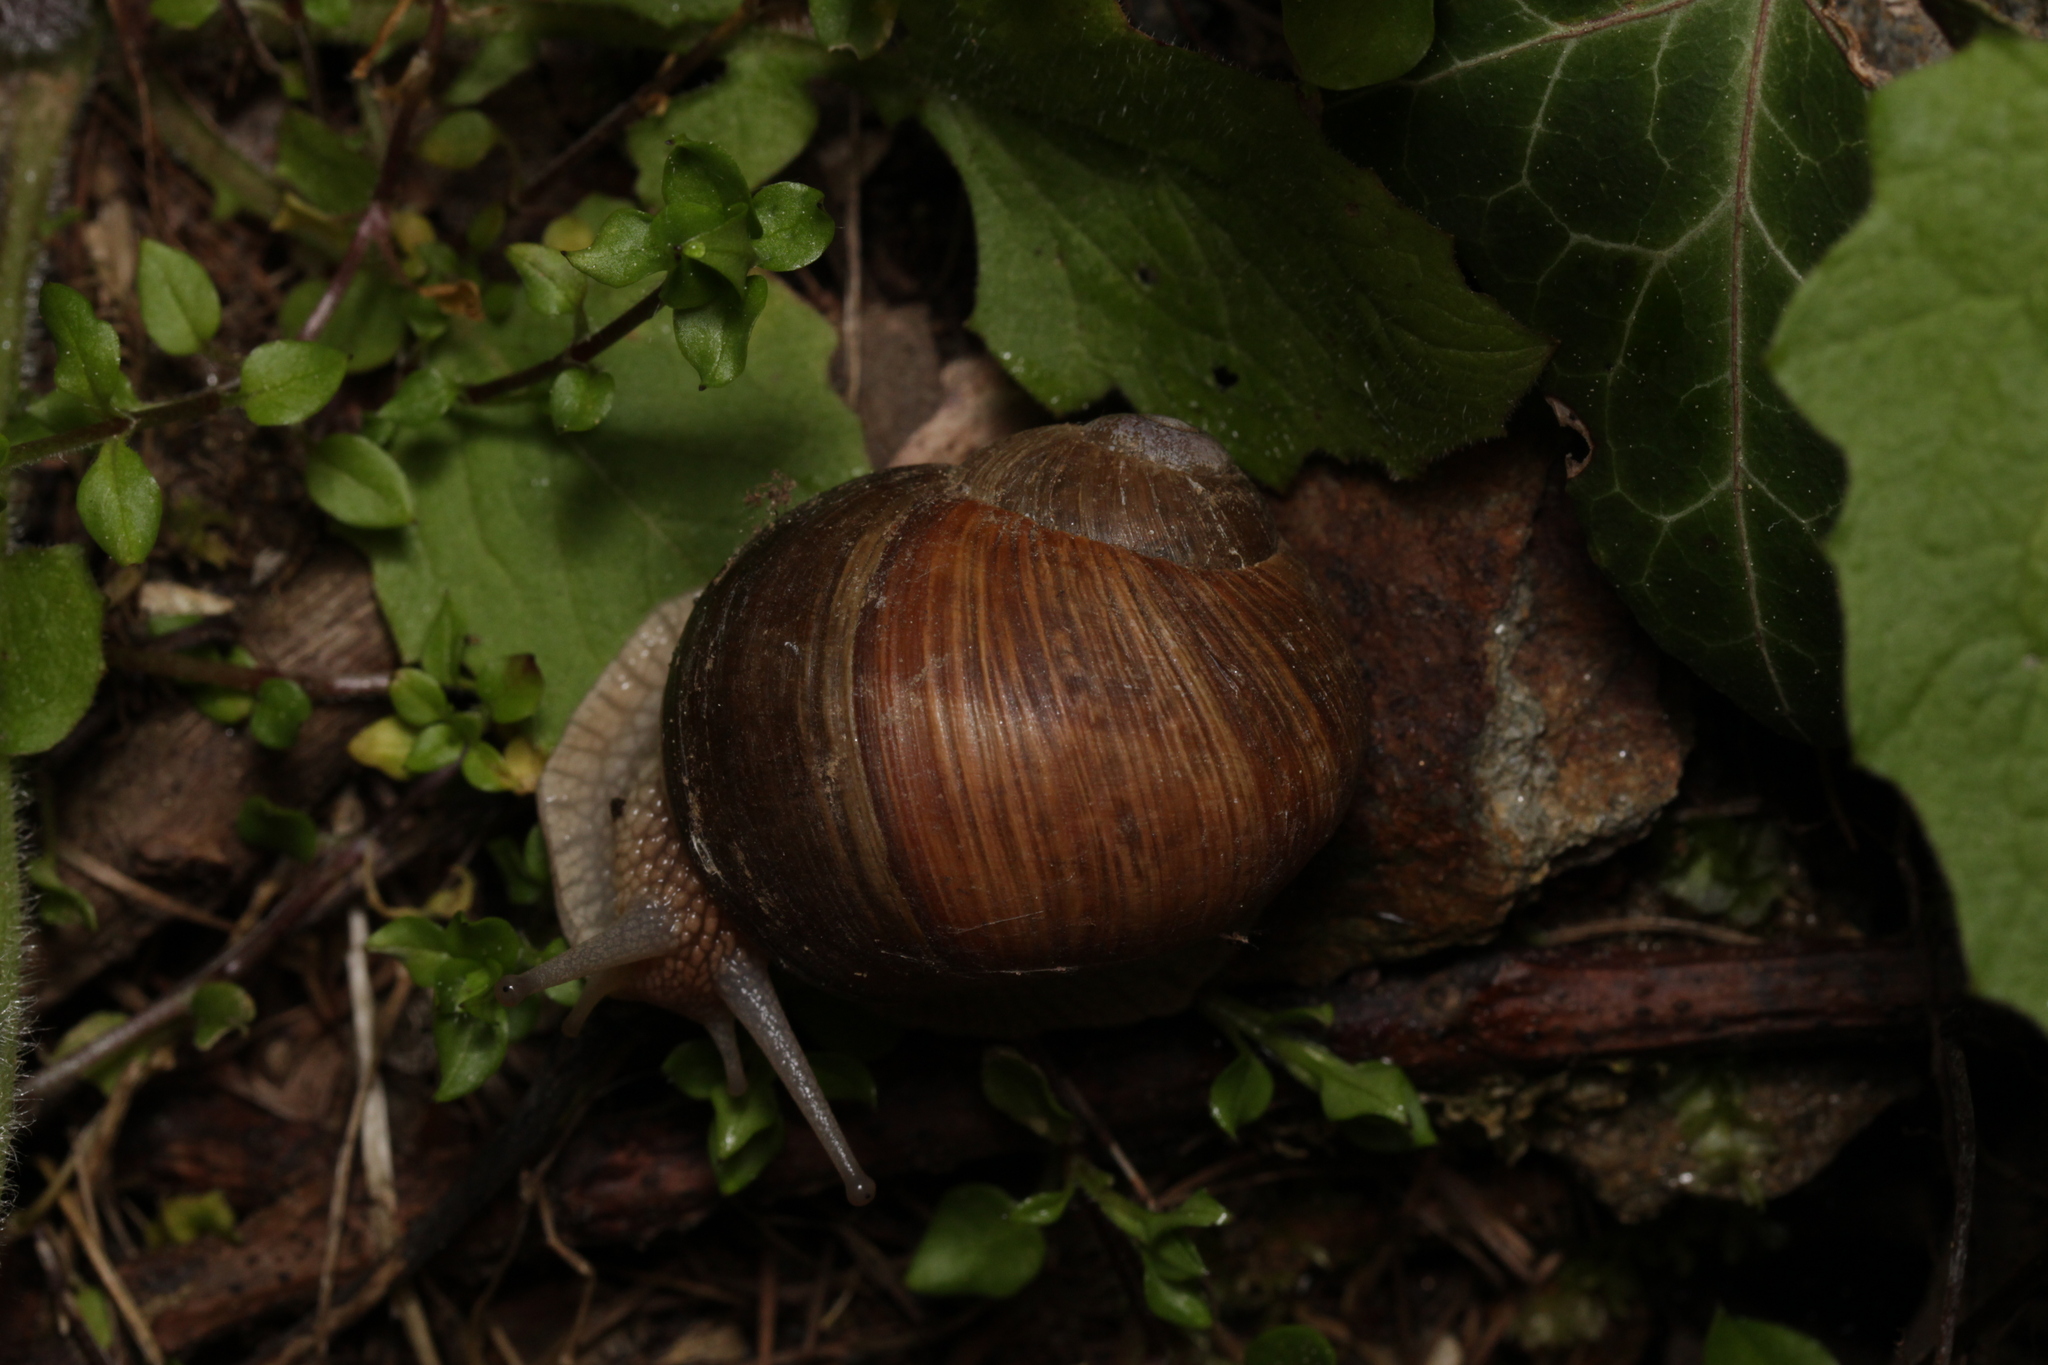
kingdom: Animalia
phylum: Mollusca
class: Gastropoda
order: Stylommatophora
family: Helicidae
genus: Helix
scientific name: Helix pomatia
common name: Roman snail
